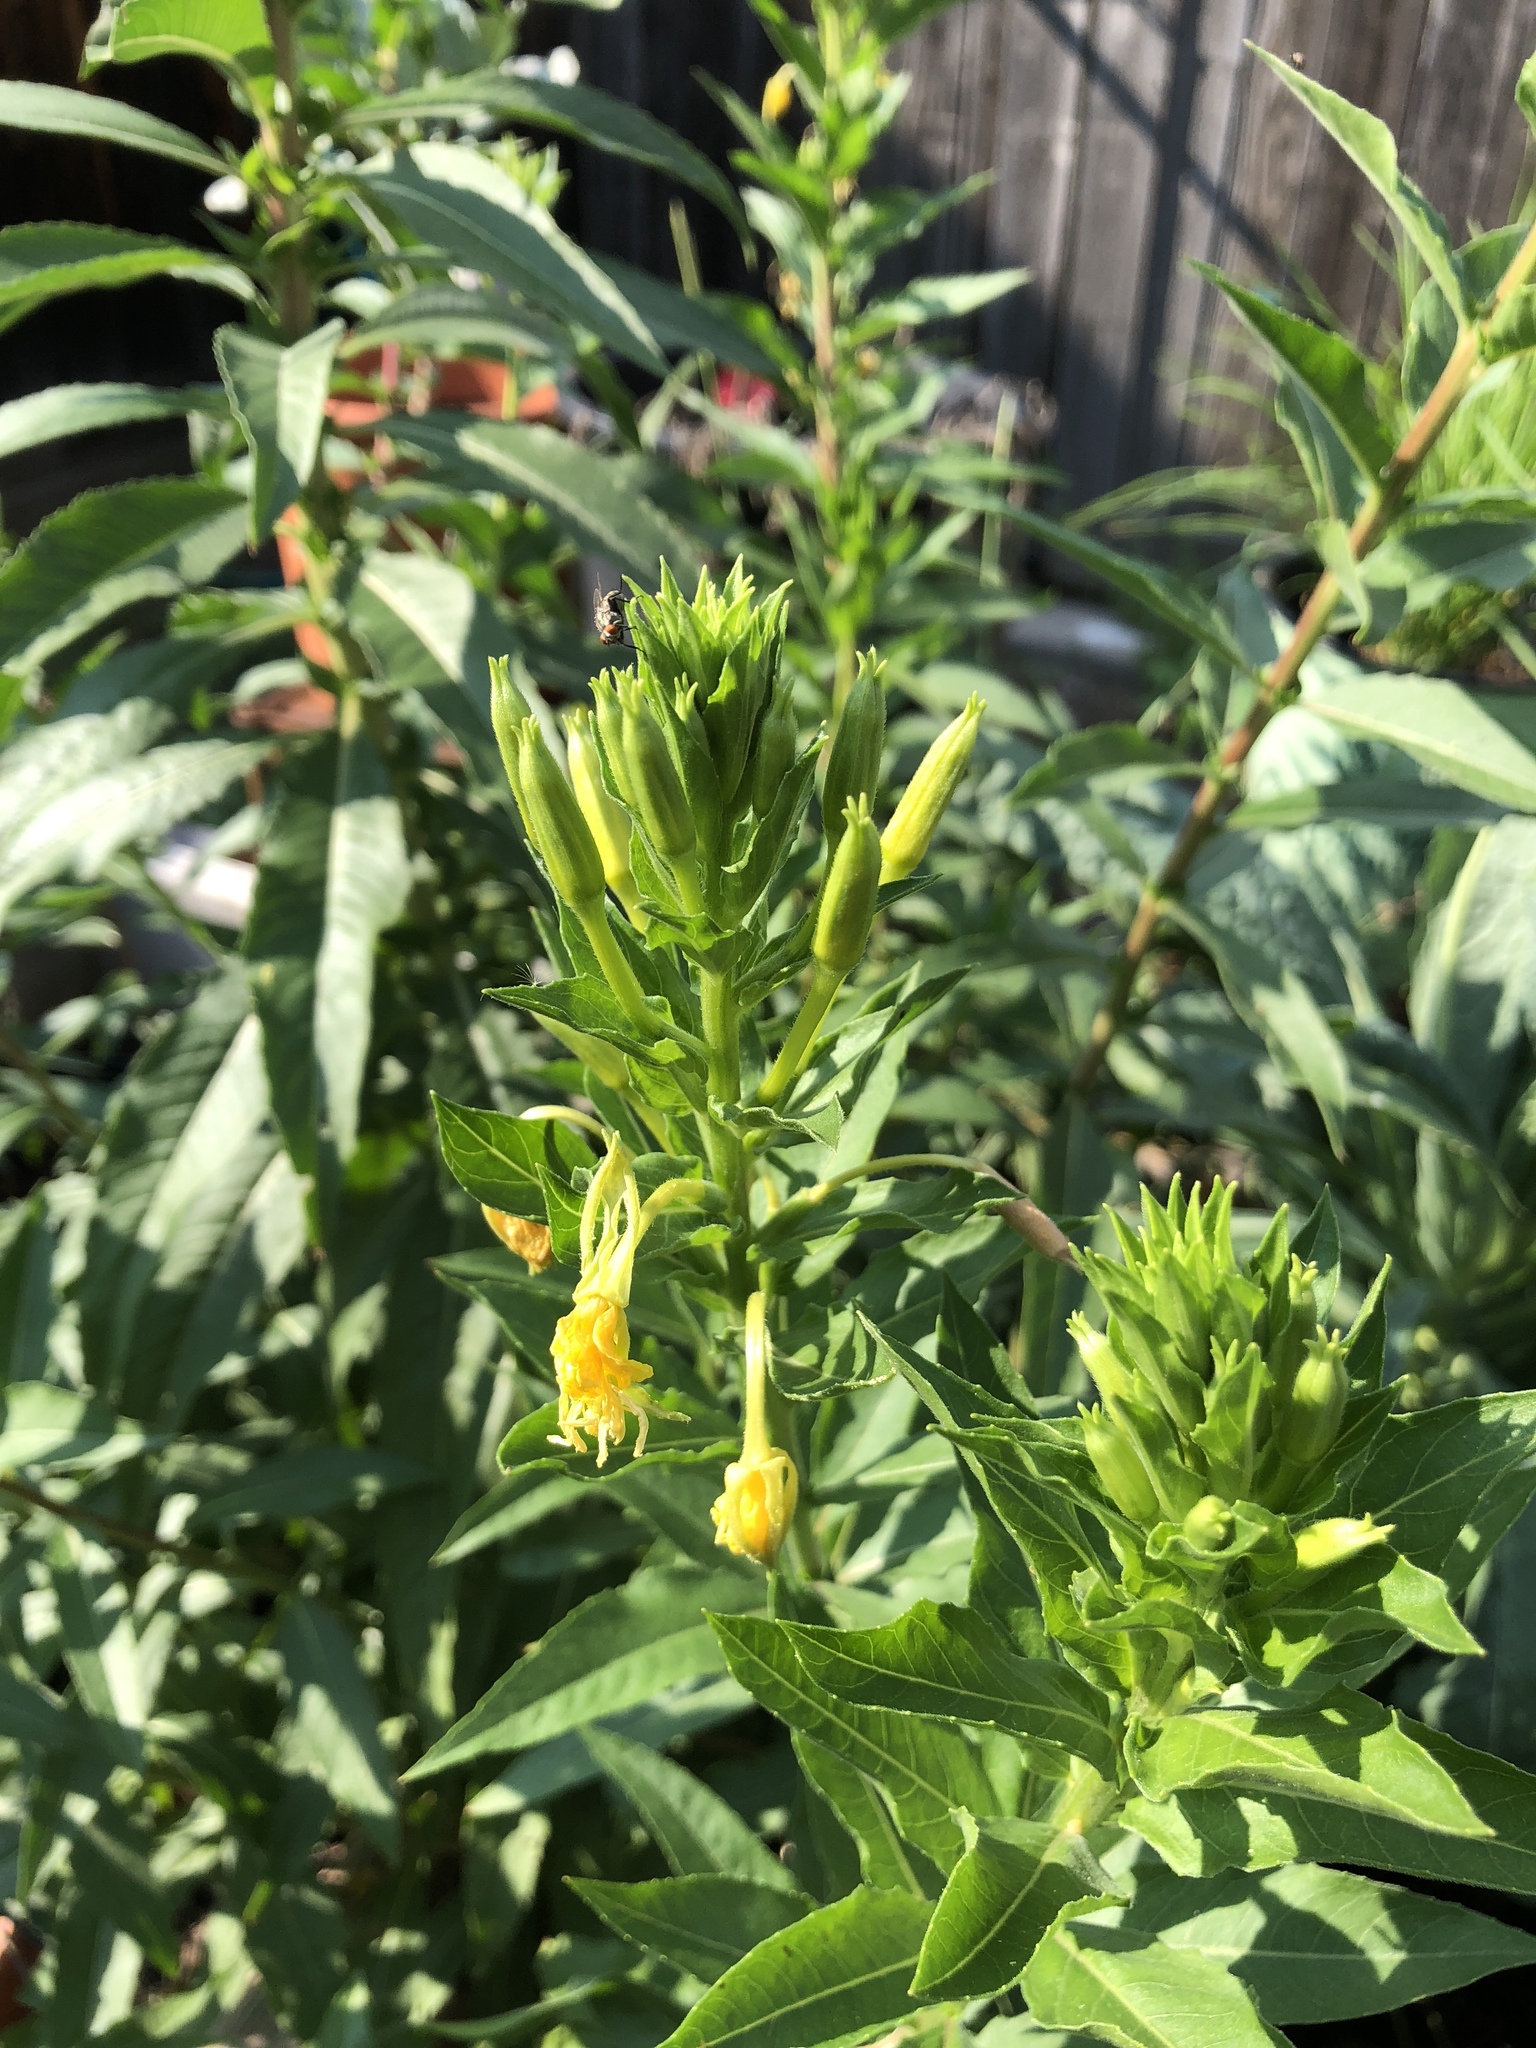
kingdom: Plantae
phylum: Tracheophyta
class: Magnoliopsida
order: Myrtales
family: Onagraceae
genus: Oenothera
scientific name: Oenothera biennis
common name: Common evening-primrose
